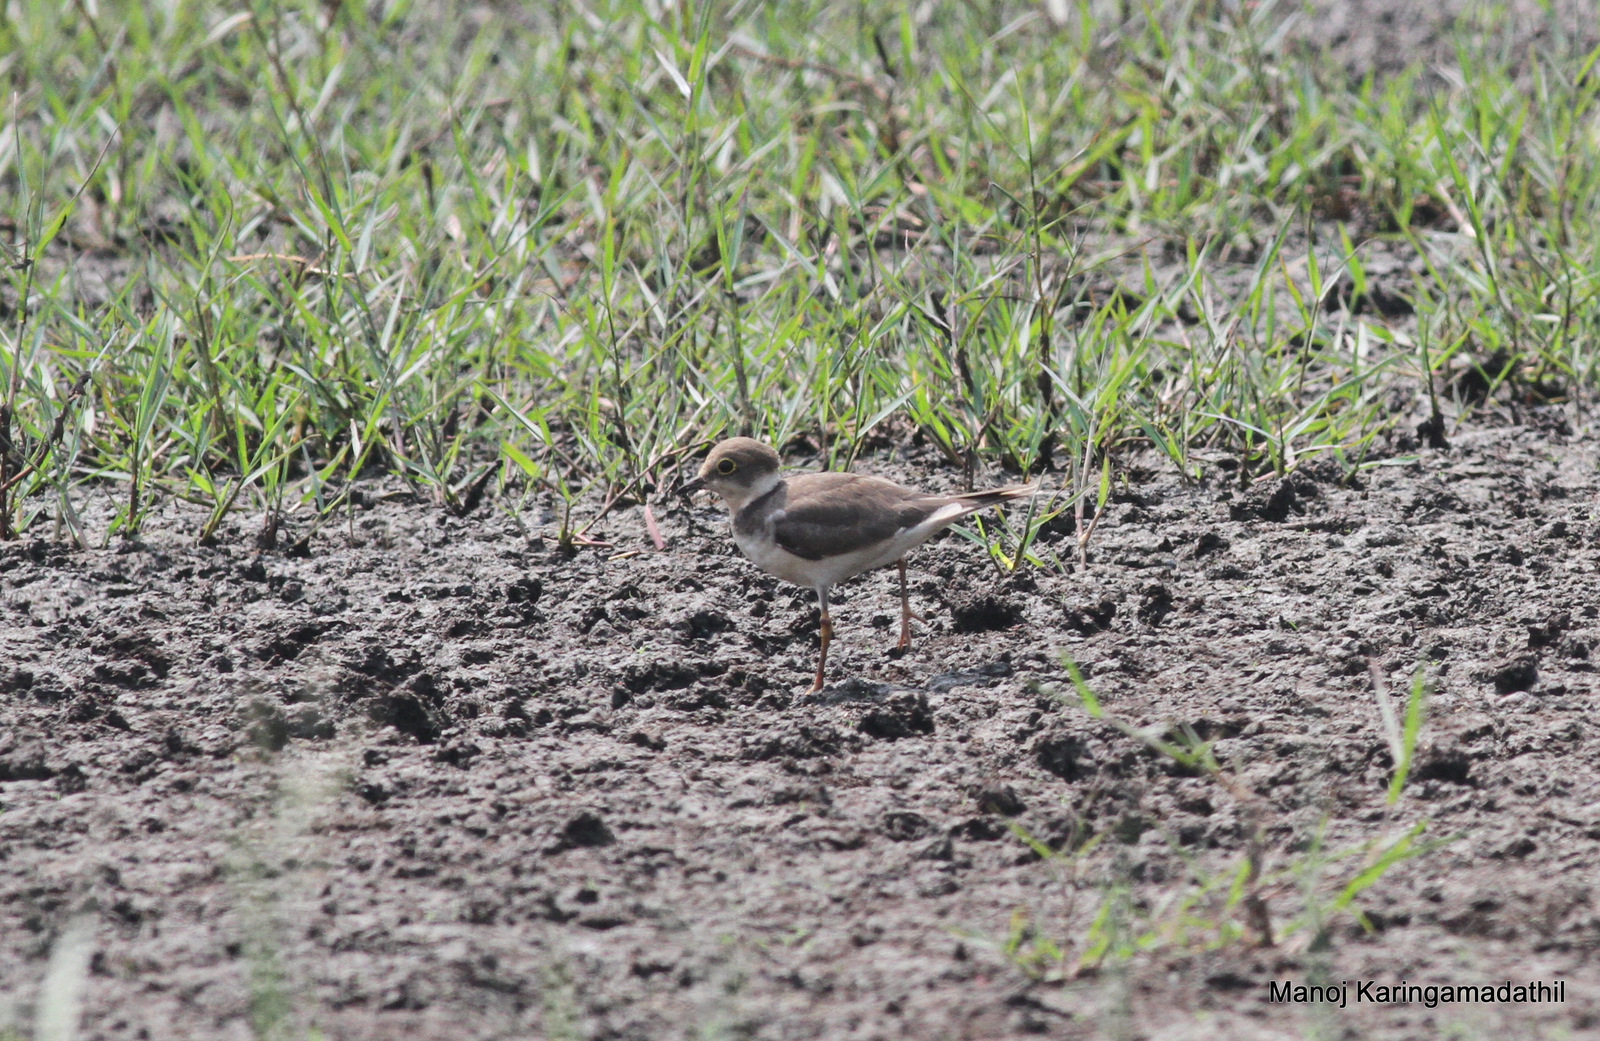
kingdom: Animalia
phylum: Chordata
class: Aves
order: Charadriiformes
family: Charadriidae
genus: Charadrius
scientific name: Charadrius dubius
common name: Little ringed plover
